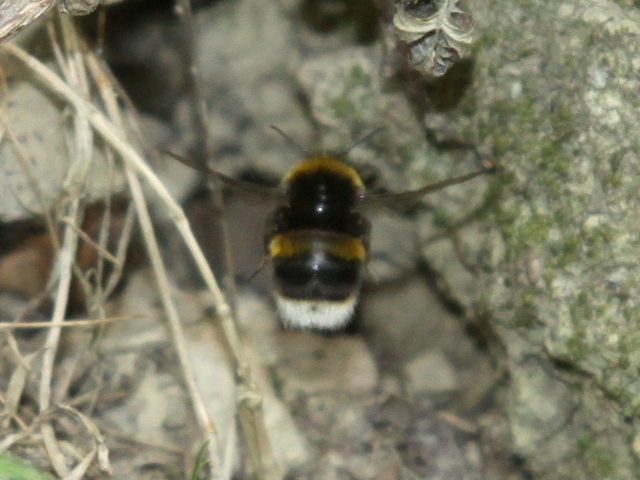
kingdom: Animalia
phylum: Arthropoda
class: Insecta
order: Hymenoptera
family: Apidae
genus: Bombus
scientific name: Bombus terrestris
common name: Buff-tailed bumblebee
